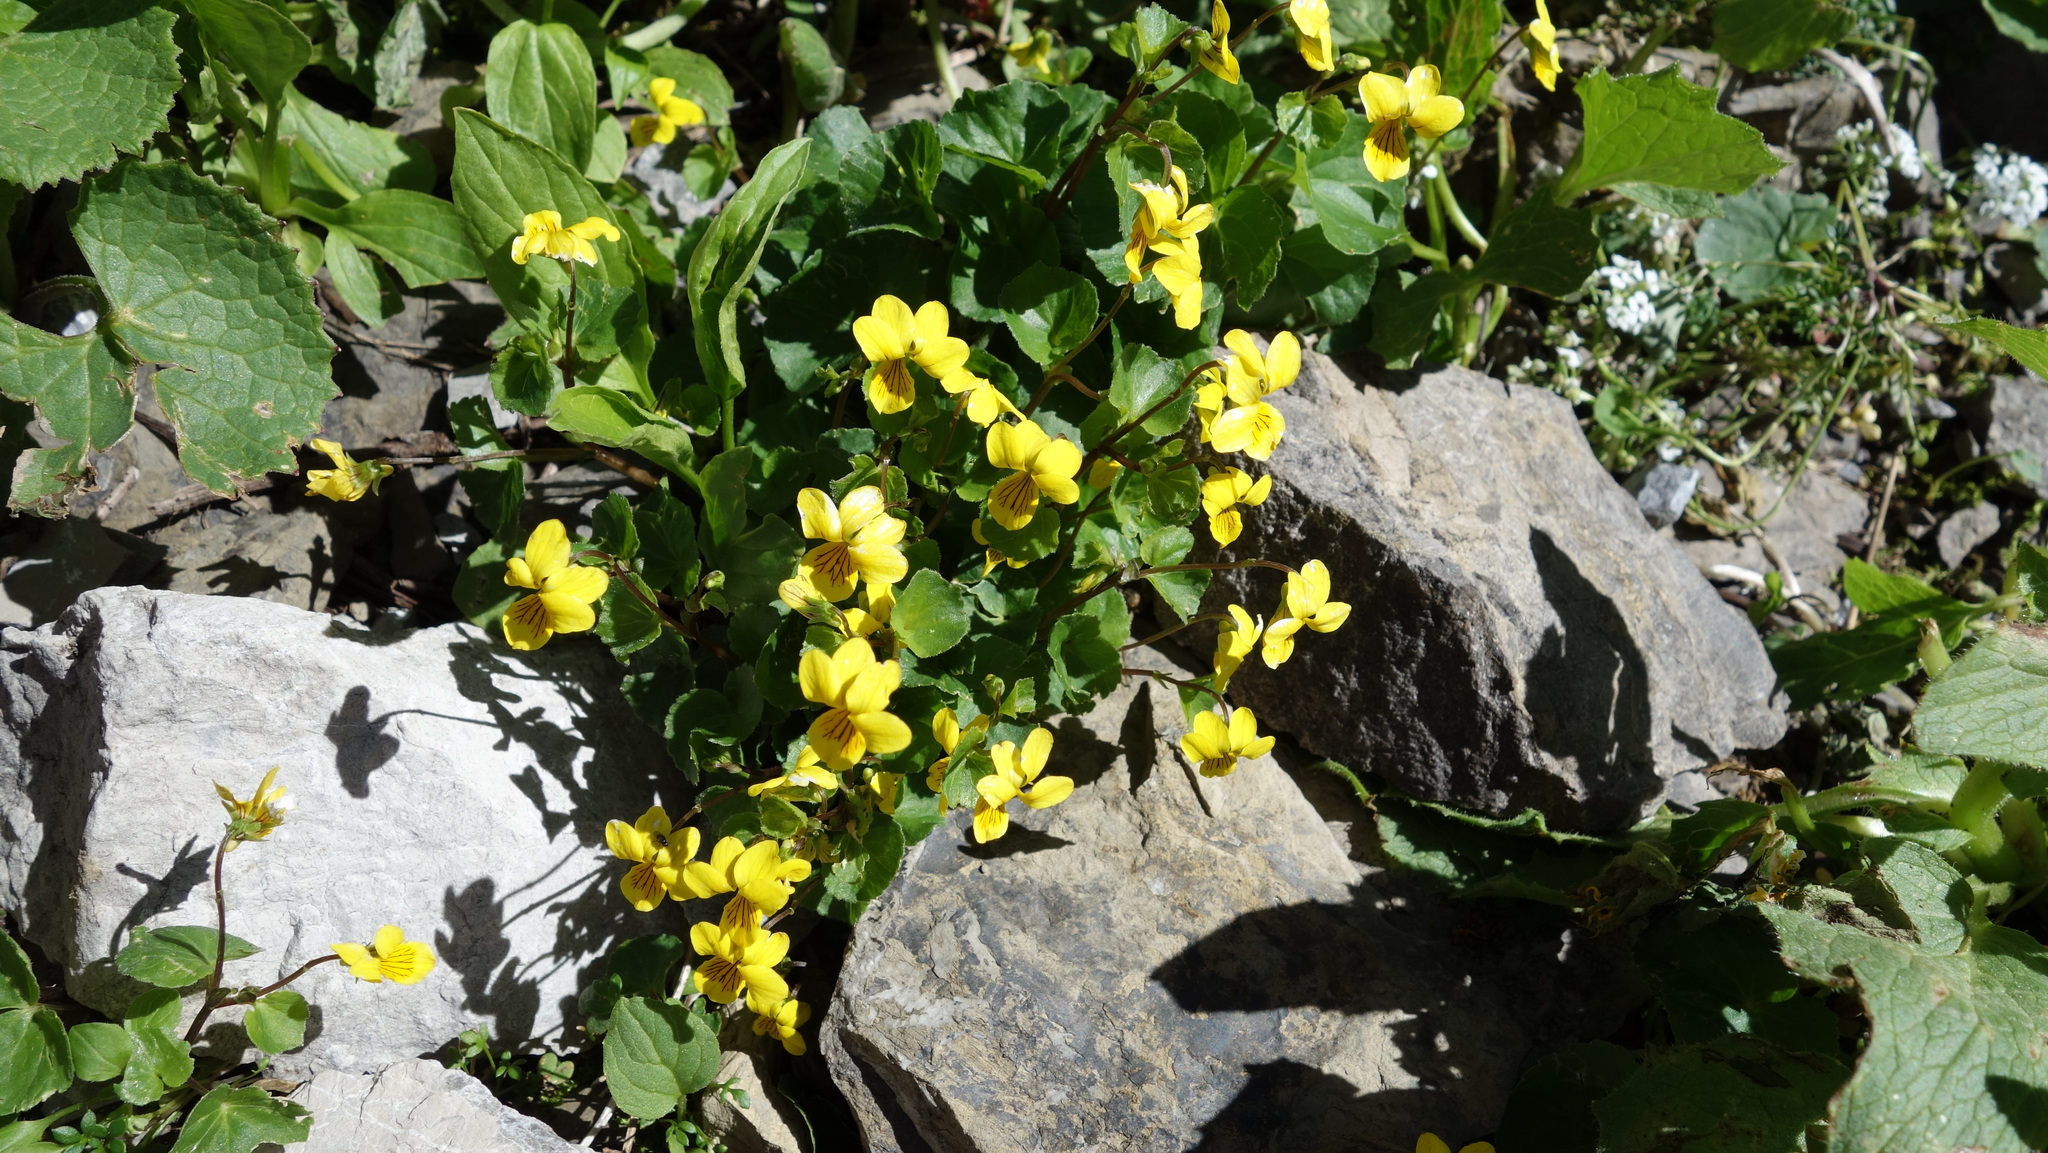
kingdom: Plantae
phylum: Tracheophyta
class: Magnoliopsida
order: Malpighiales
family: Violaceae
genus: Viola
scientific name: Viola biflora
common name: Alpine yellow violet
